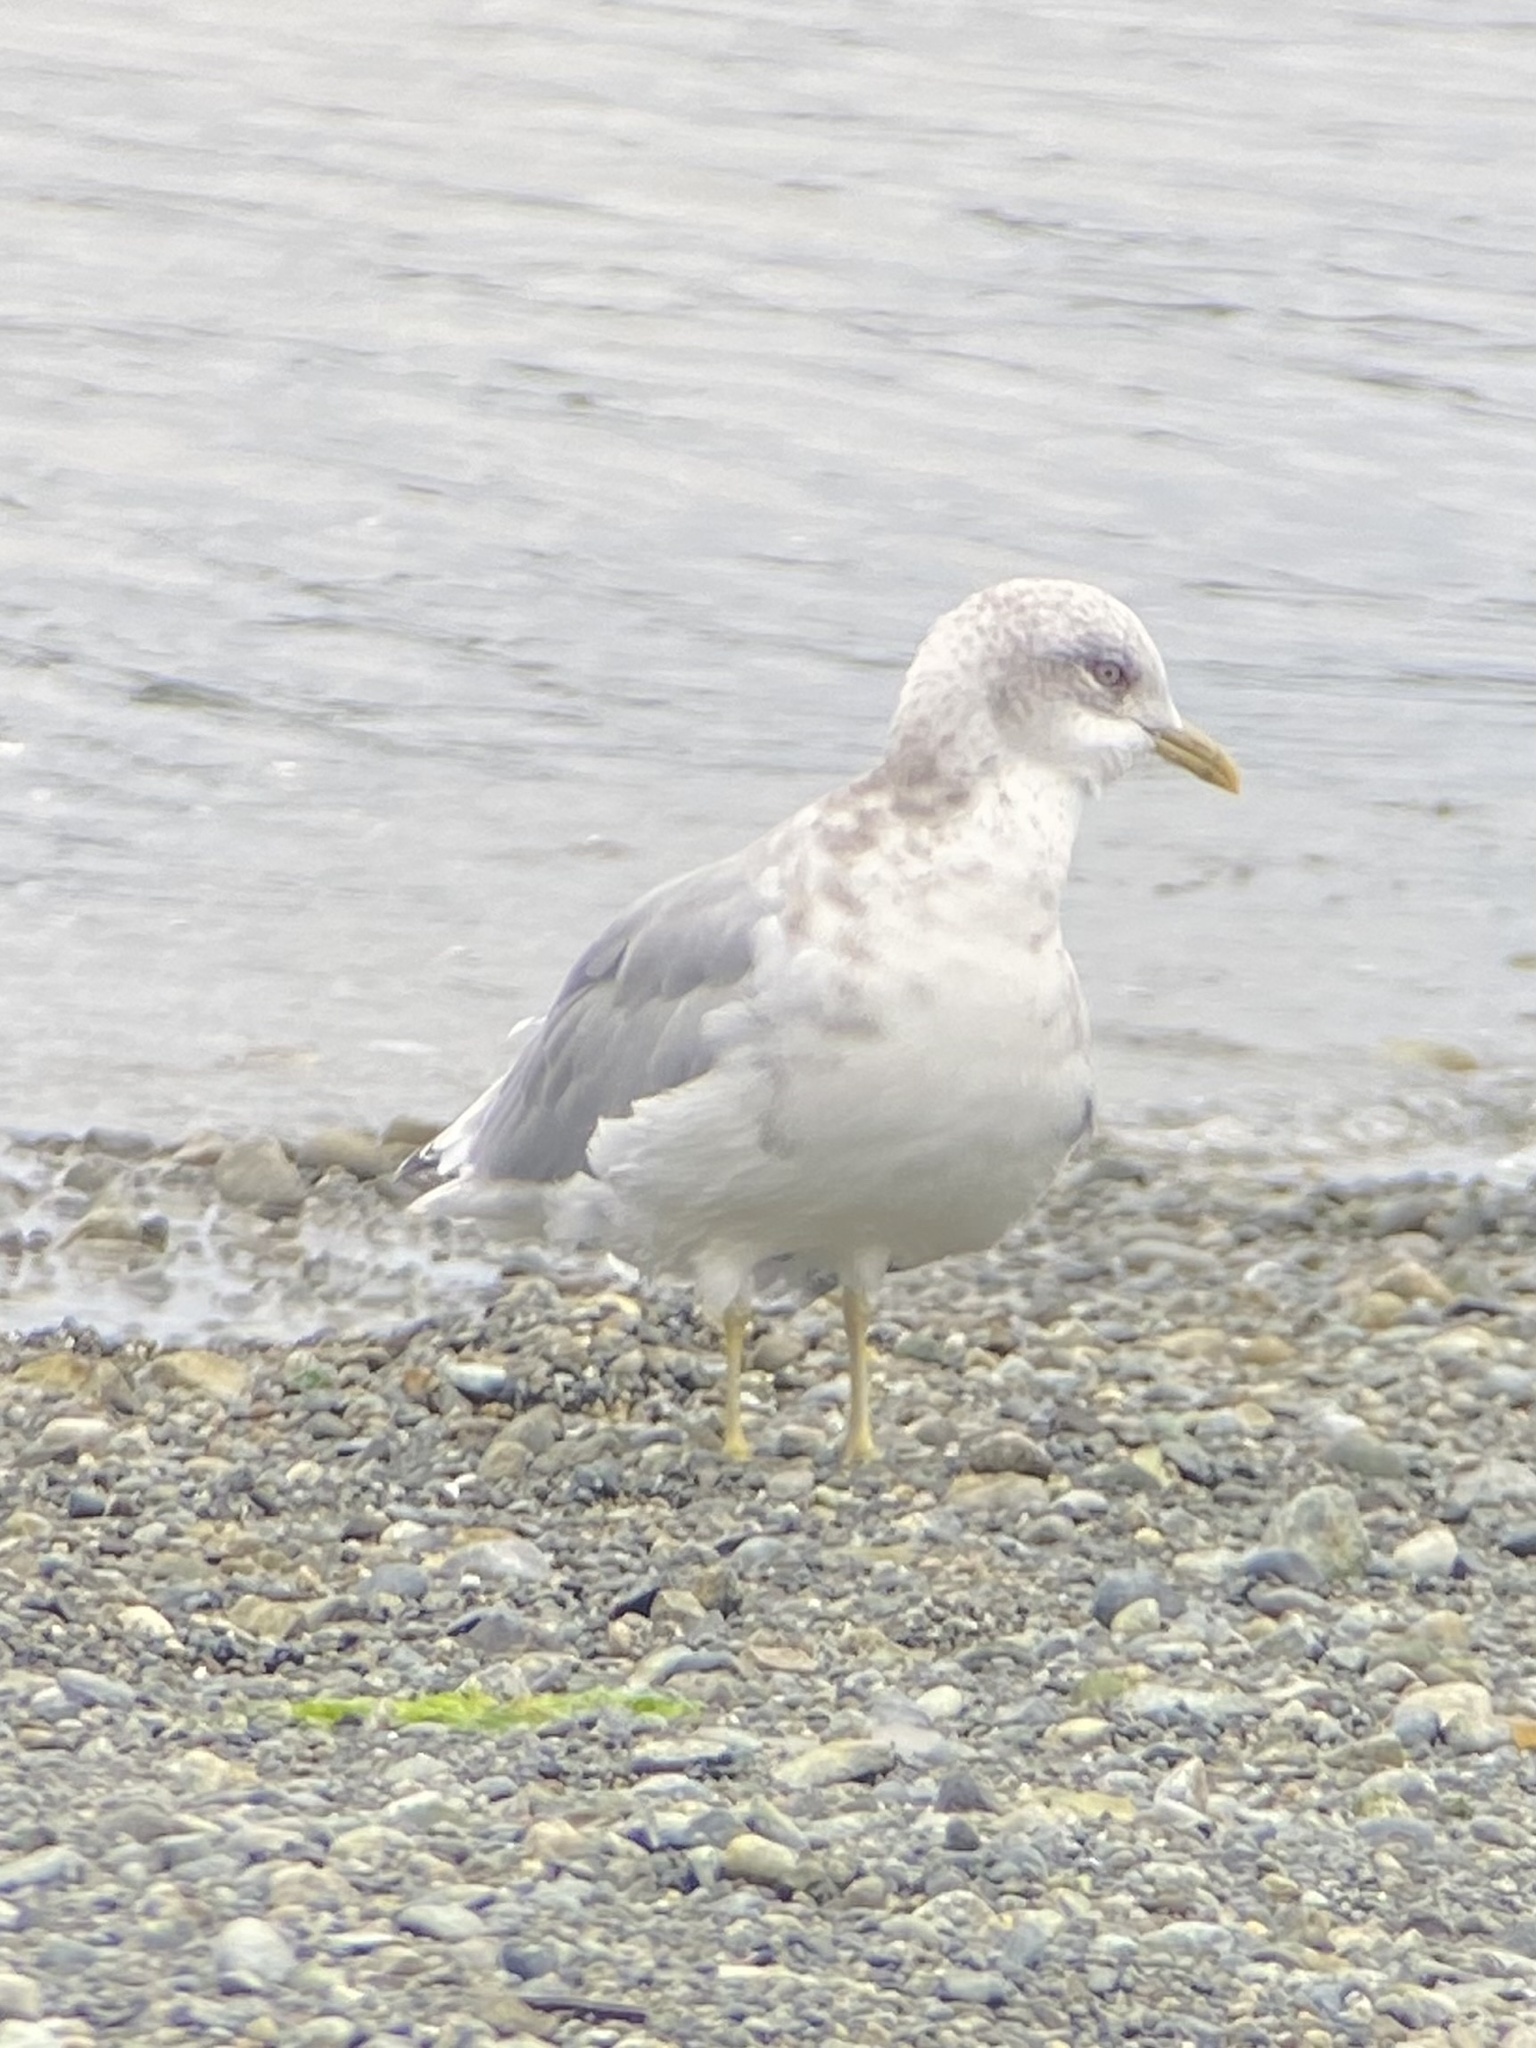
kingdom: Animalia
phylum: Chordata
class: Aves
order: Charadriiformes
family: Laridae
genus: Larus
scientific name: Larus brachyrhynchus
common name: Short-billed gull
